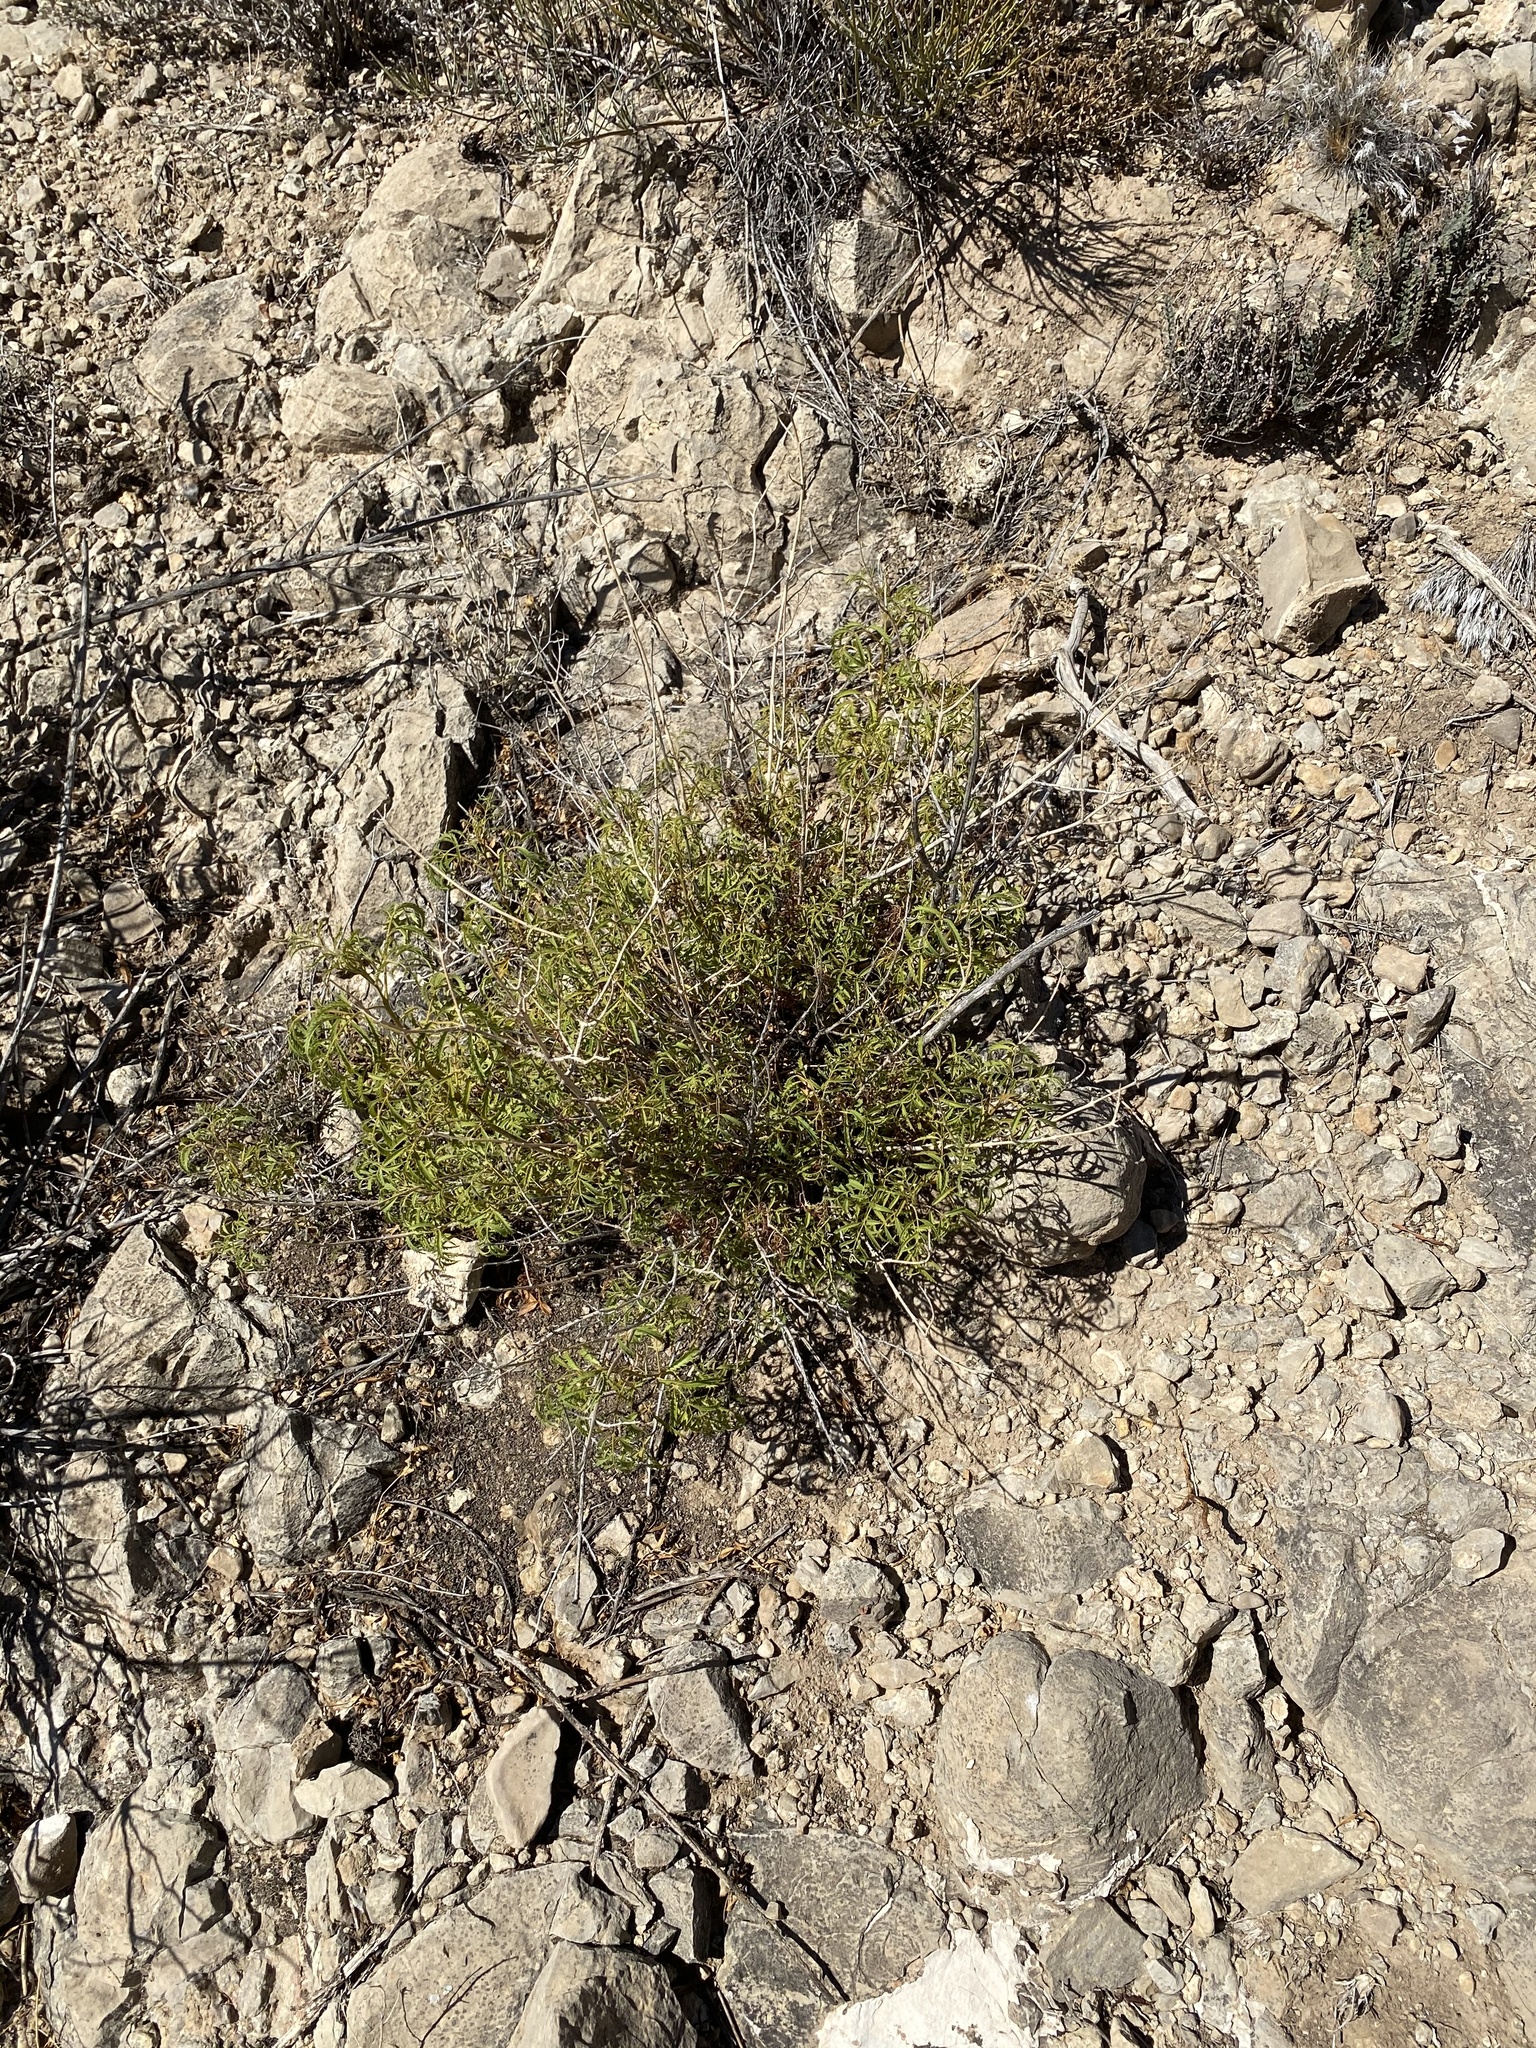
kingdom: Plantae
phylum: Tracheophyta
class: Magnoliopsida
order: Asterales
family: Asteraceae
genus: Sidneya
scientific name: Sidneya tenuifolia
